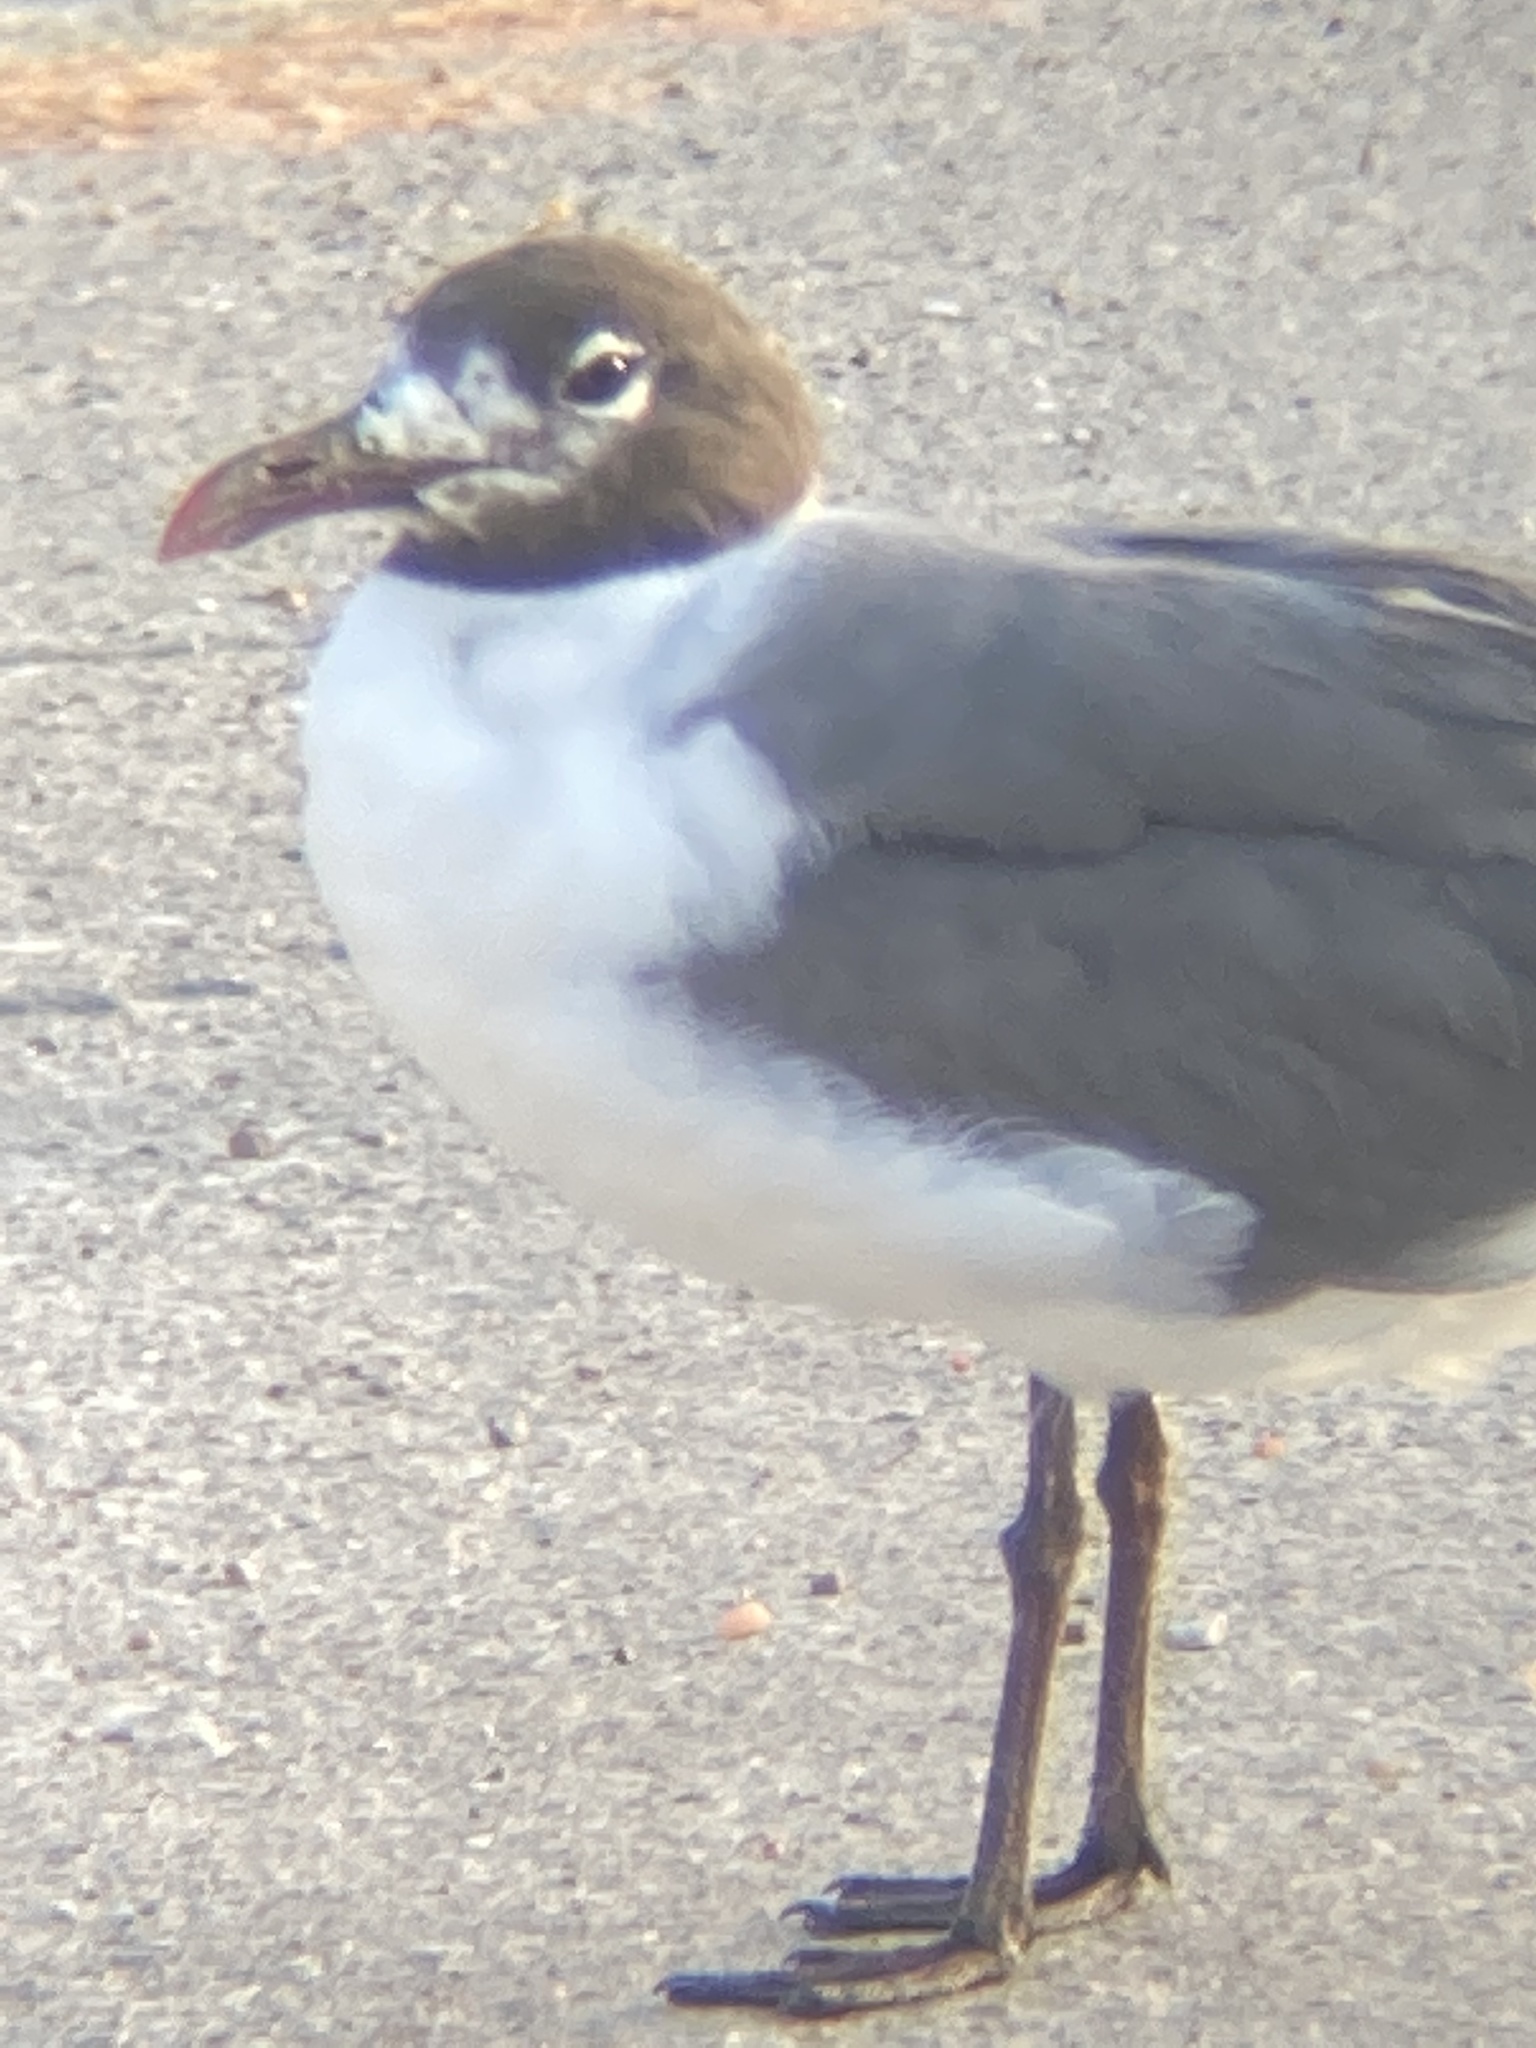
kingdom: Animalia
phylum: Chordata
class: Aves
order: Charadriiformes
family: Laridae
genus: Leucophaeus
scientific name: Leucophaeus atricilla
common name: Laughing gull
